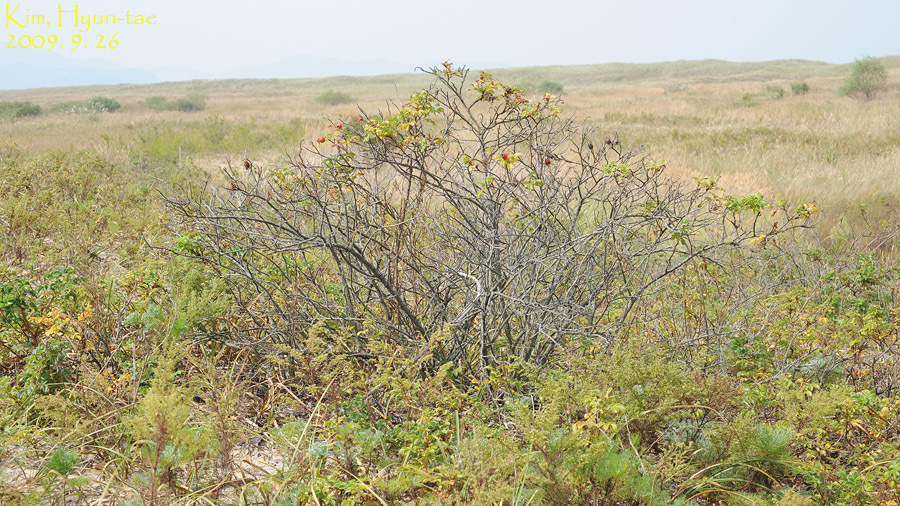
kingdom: Plantae
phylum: Tracheophyta
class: Magnoliopsida
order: Rosales
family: Rosaceae
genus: Rosa
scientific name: Rosa rugosa
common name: Japanese rose
